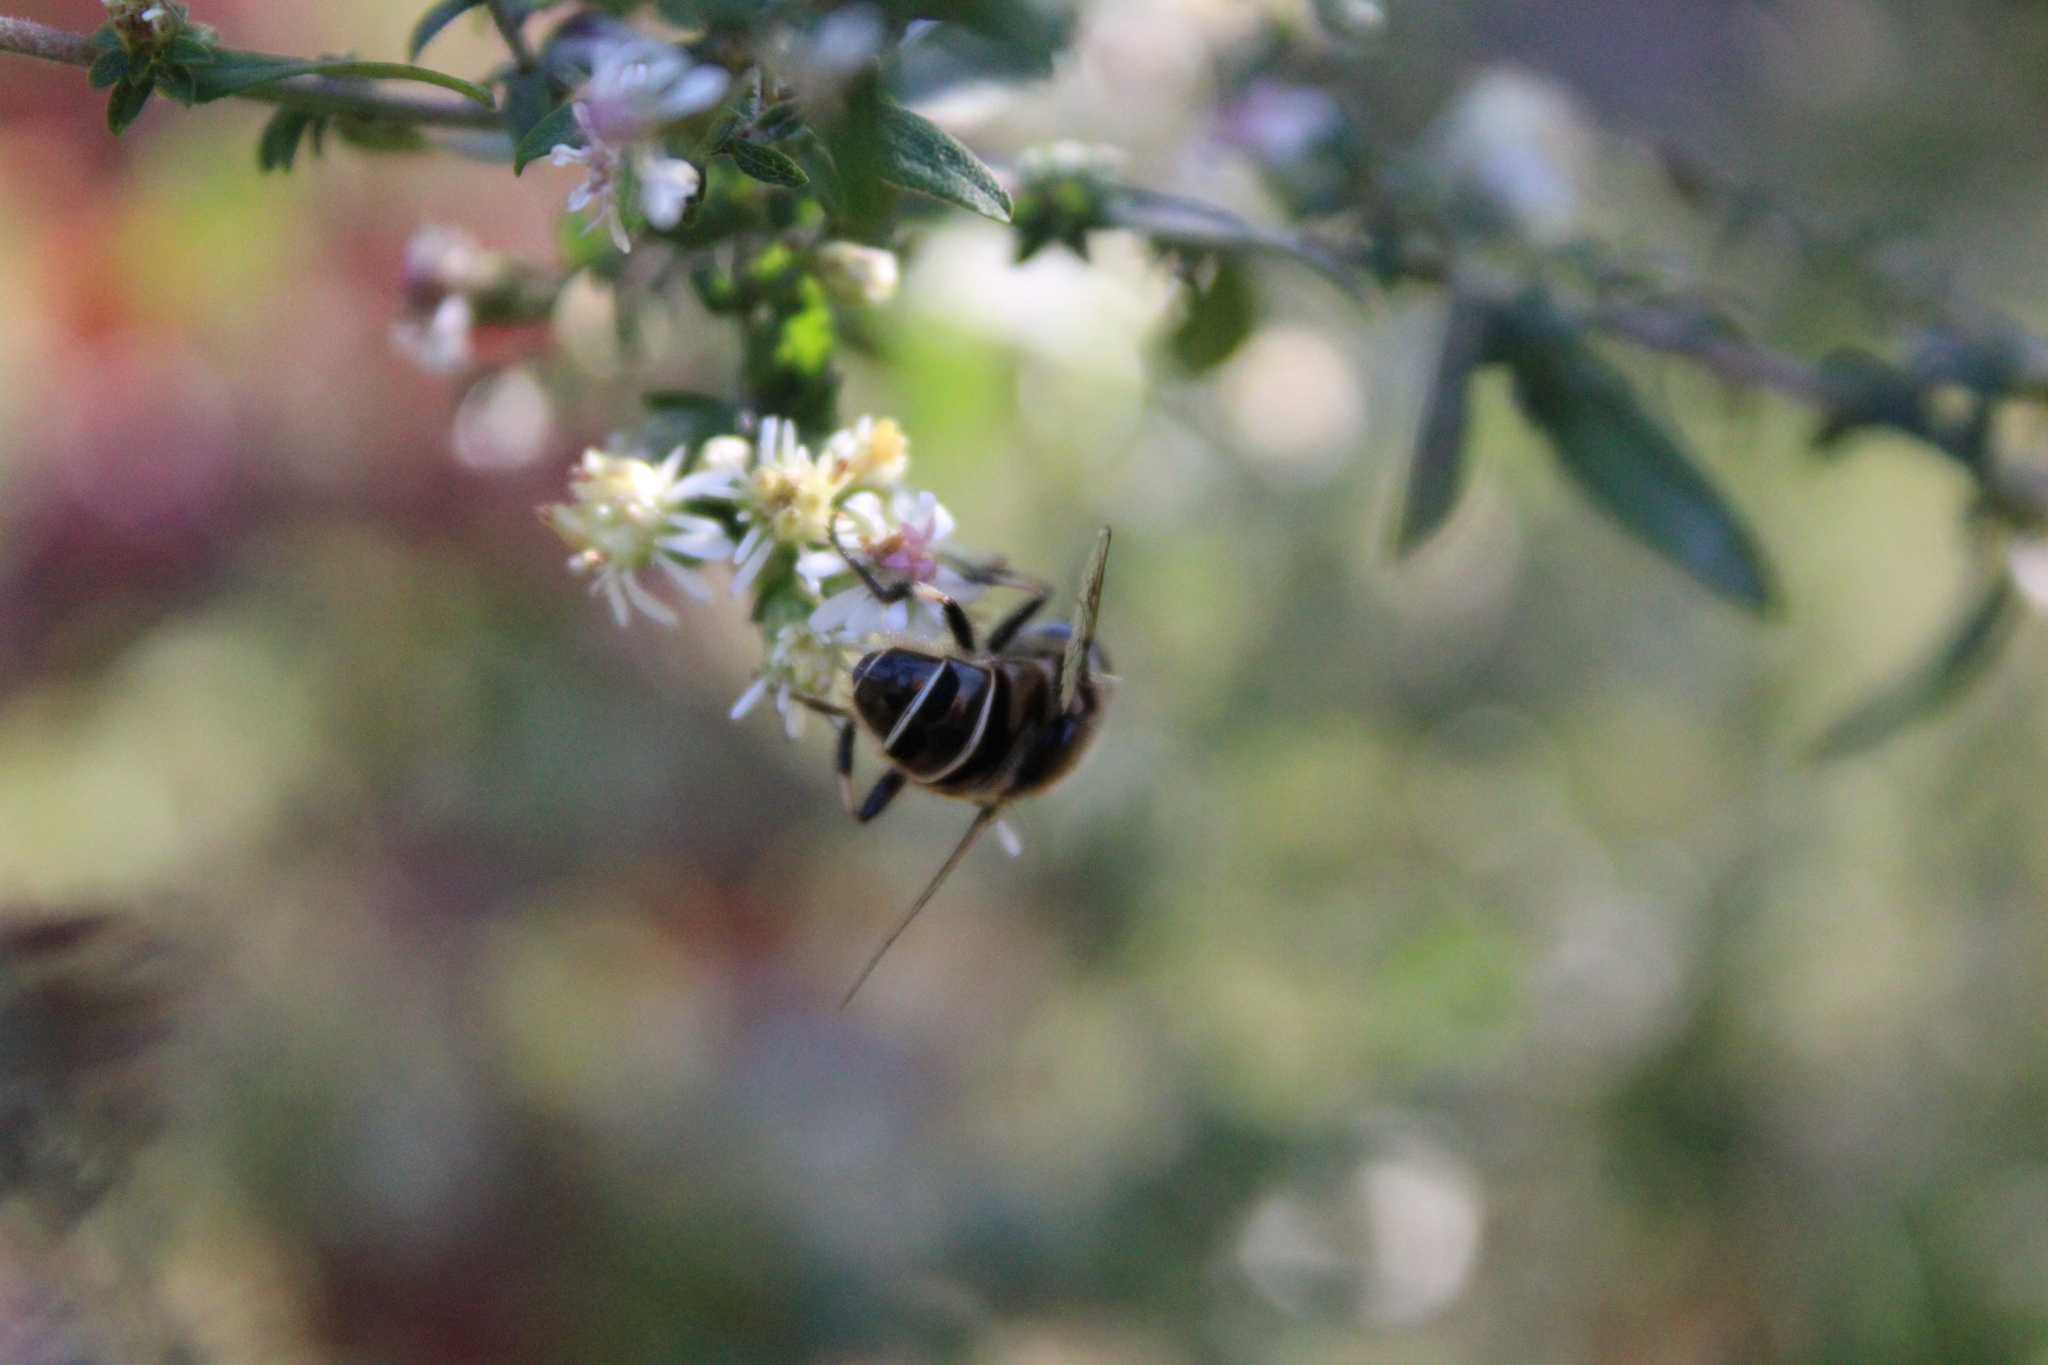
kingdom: Animalia
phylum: Arthropoda
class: Insecta
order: Diptera
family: Syrphidae
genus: Eristalis
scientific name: Eristalis dimidiata
